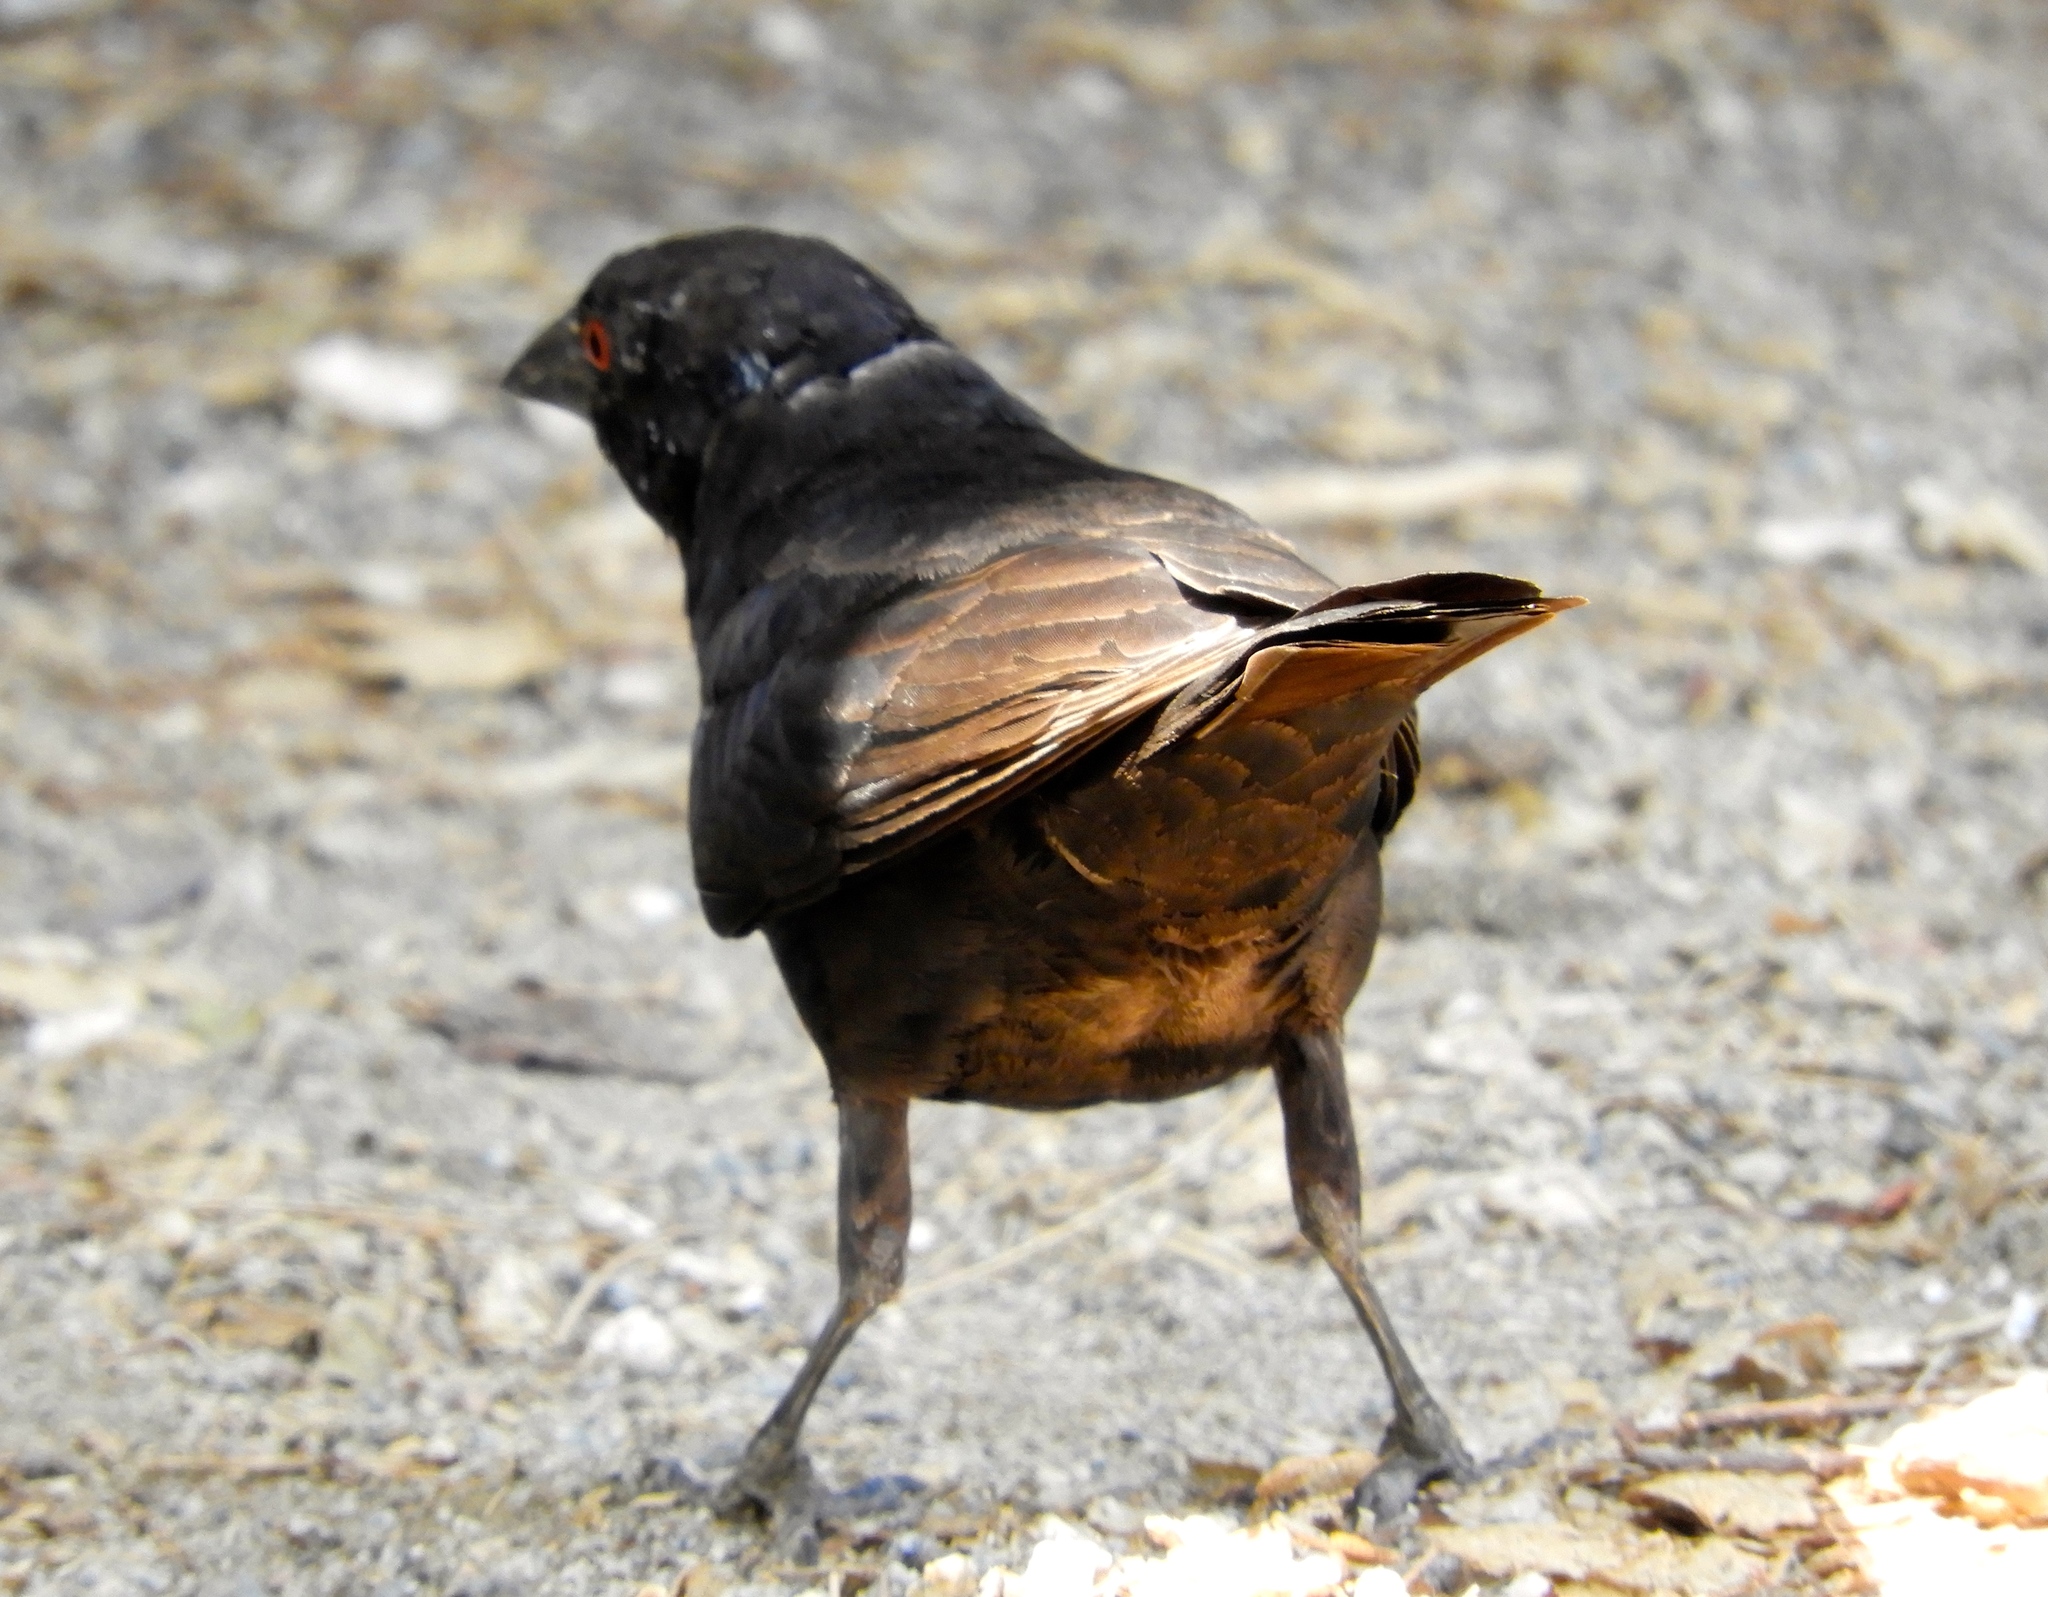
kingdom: Animalia
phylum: Chordata
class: Aves
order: Passeriformes
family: Icteridae
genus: Molothrus
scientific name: Molothrus aeneus
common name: Bronzed cowbird
